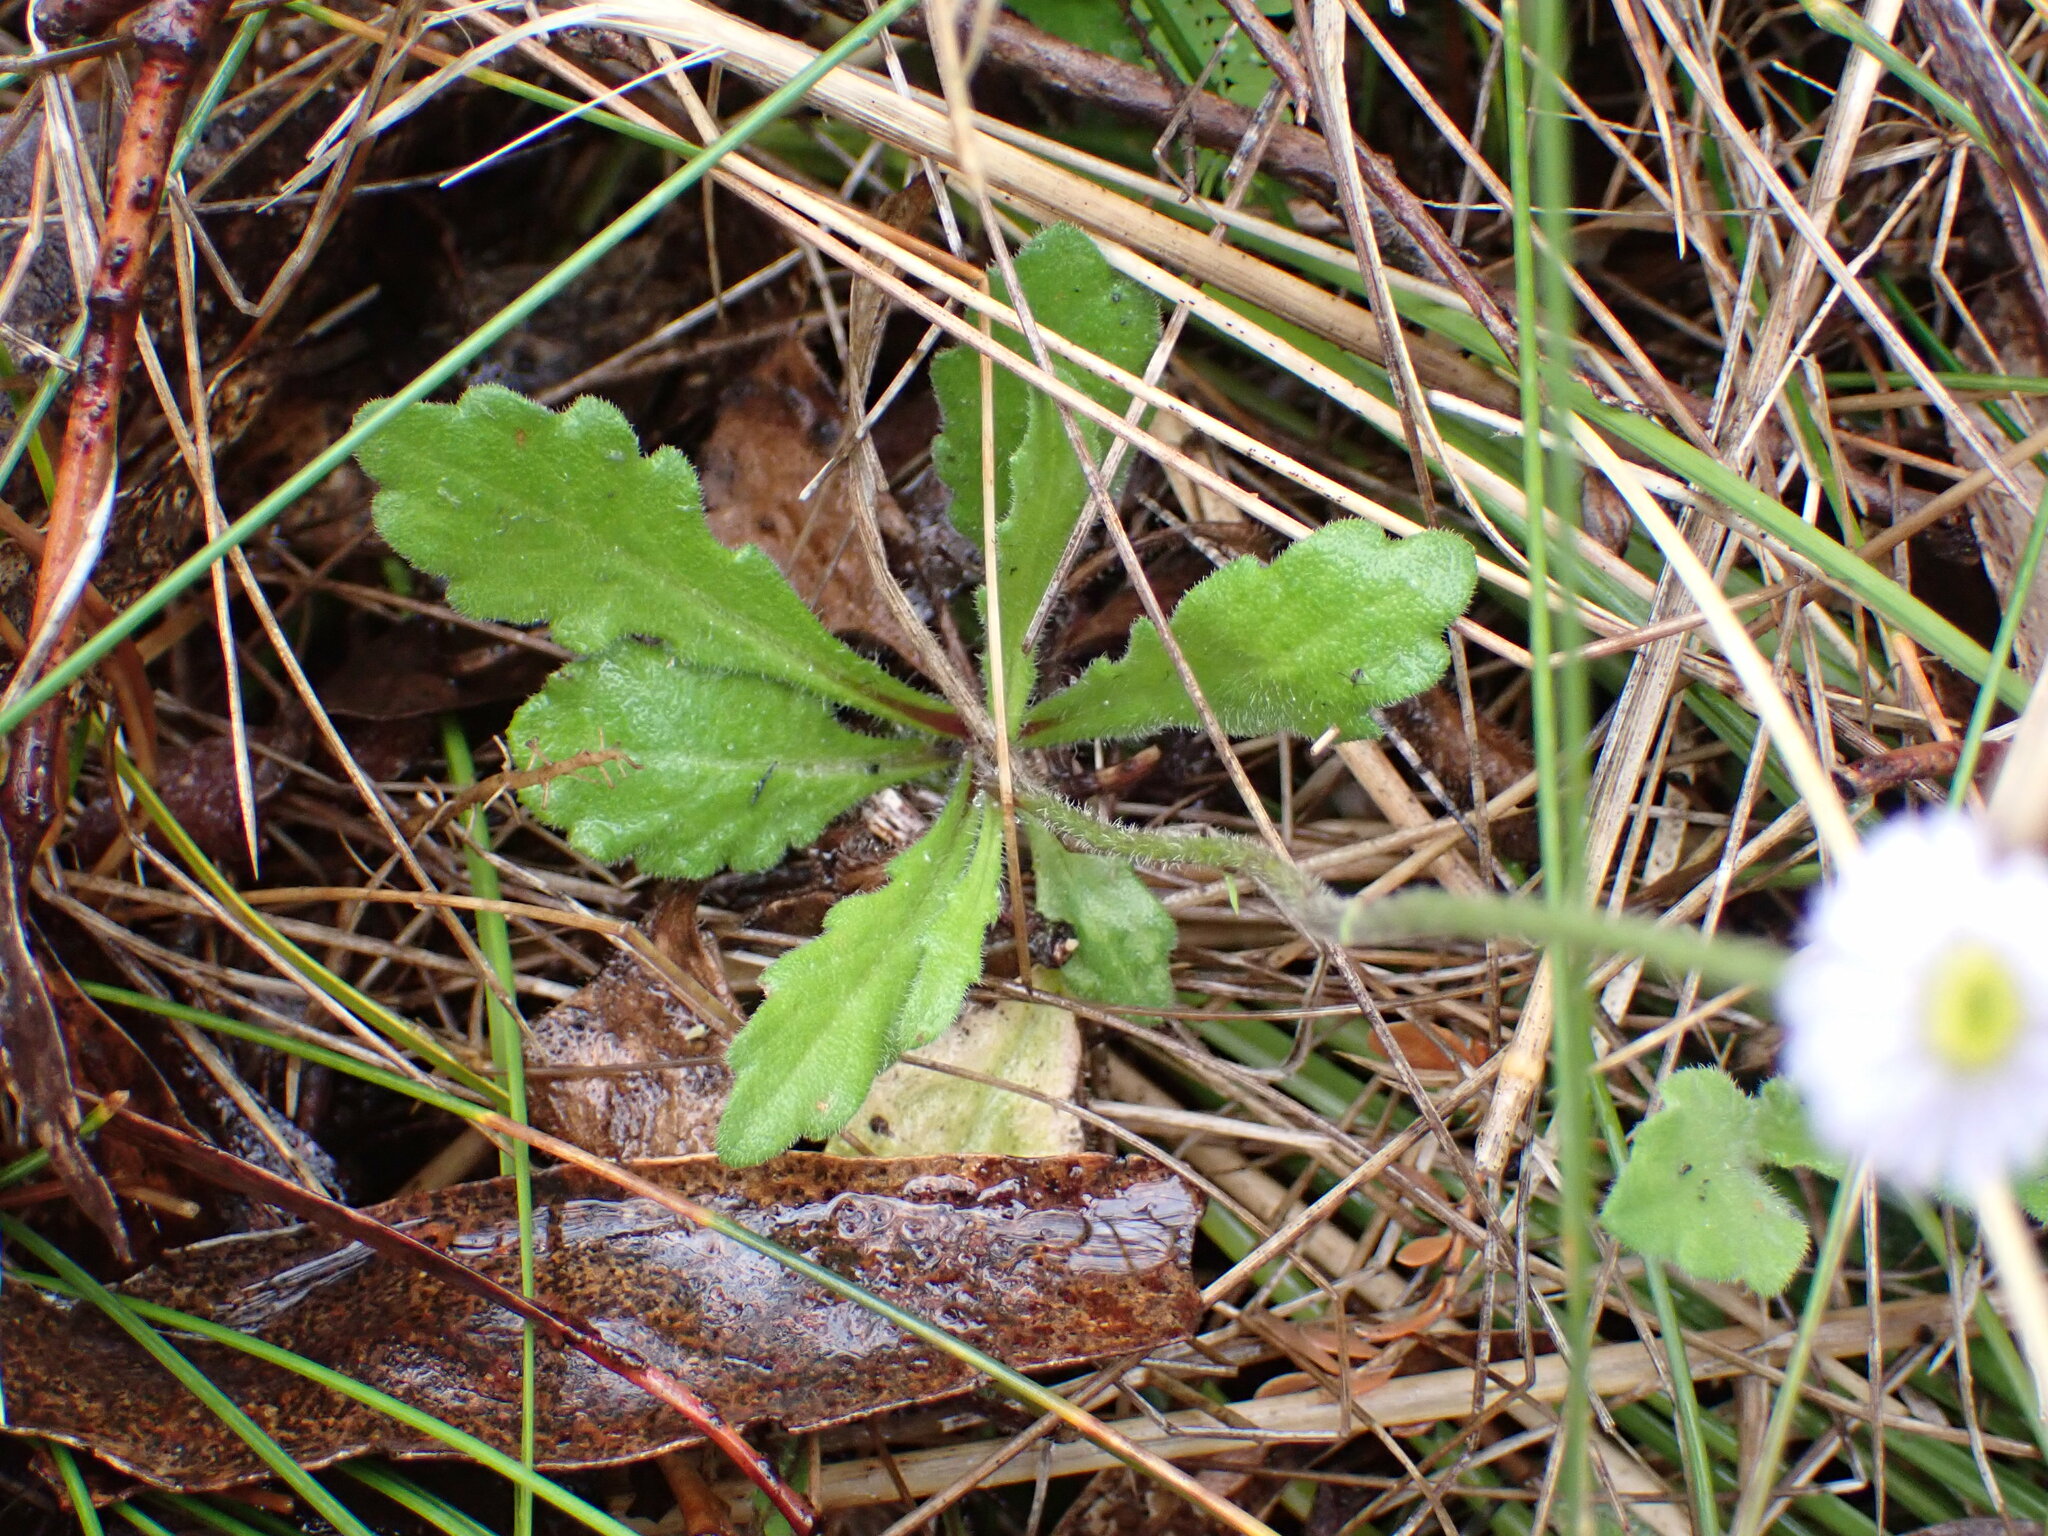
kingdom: Plantae
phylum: Tracheophyta
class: Magnoliopsida
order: Asterales
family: Asteraceae
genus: Lagenophora
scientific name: Lagenophora stipitata
